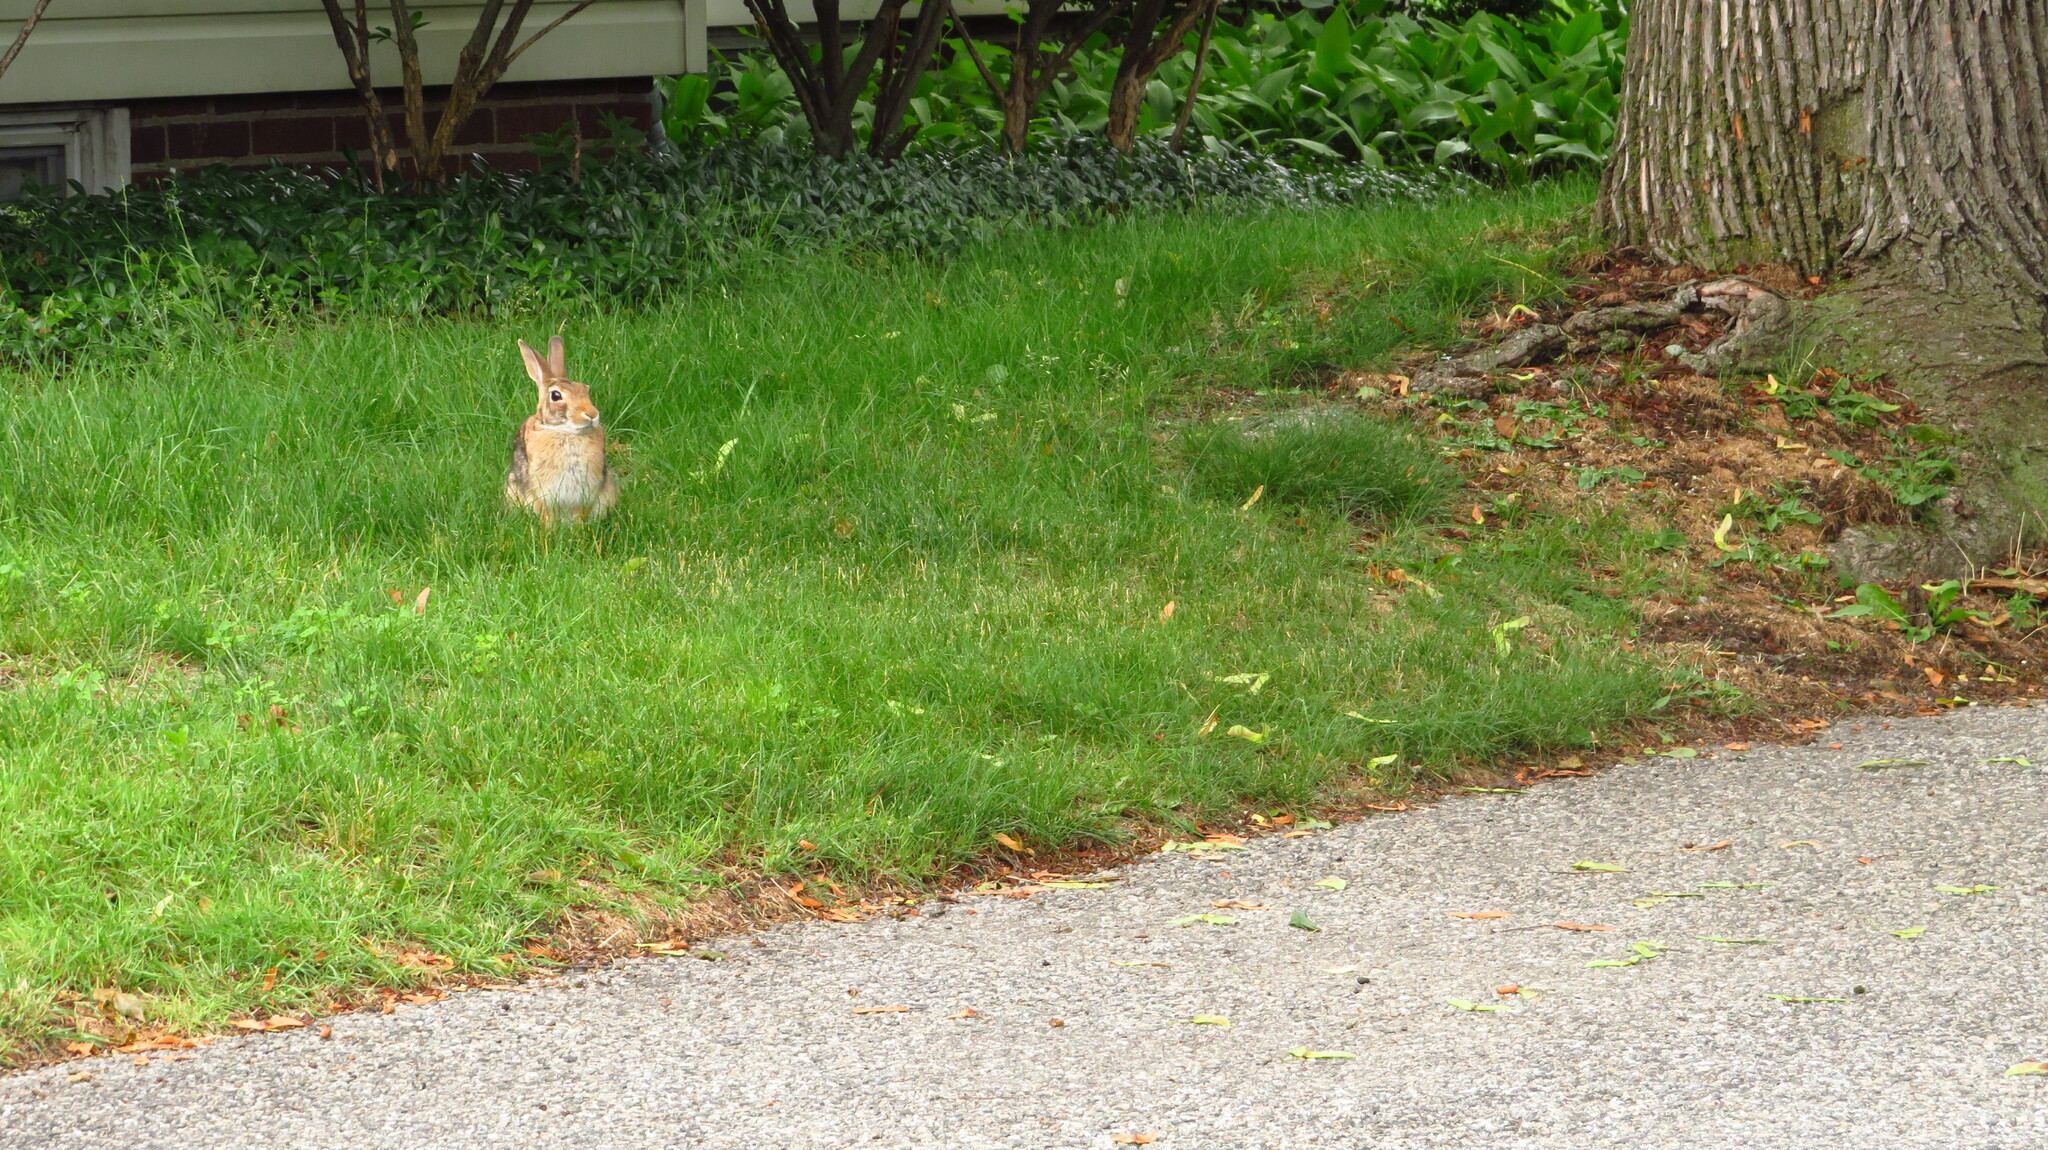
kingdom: Animalia
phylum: Chordata
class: Mammalia
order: Lagomorpha
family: Leporidae
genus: Sylvilagus
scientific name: Sylvilagus floridanus
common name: Eastern cottontail
